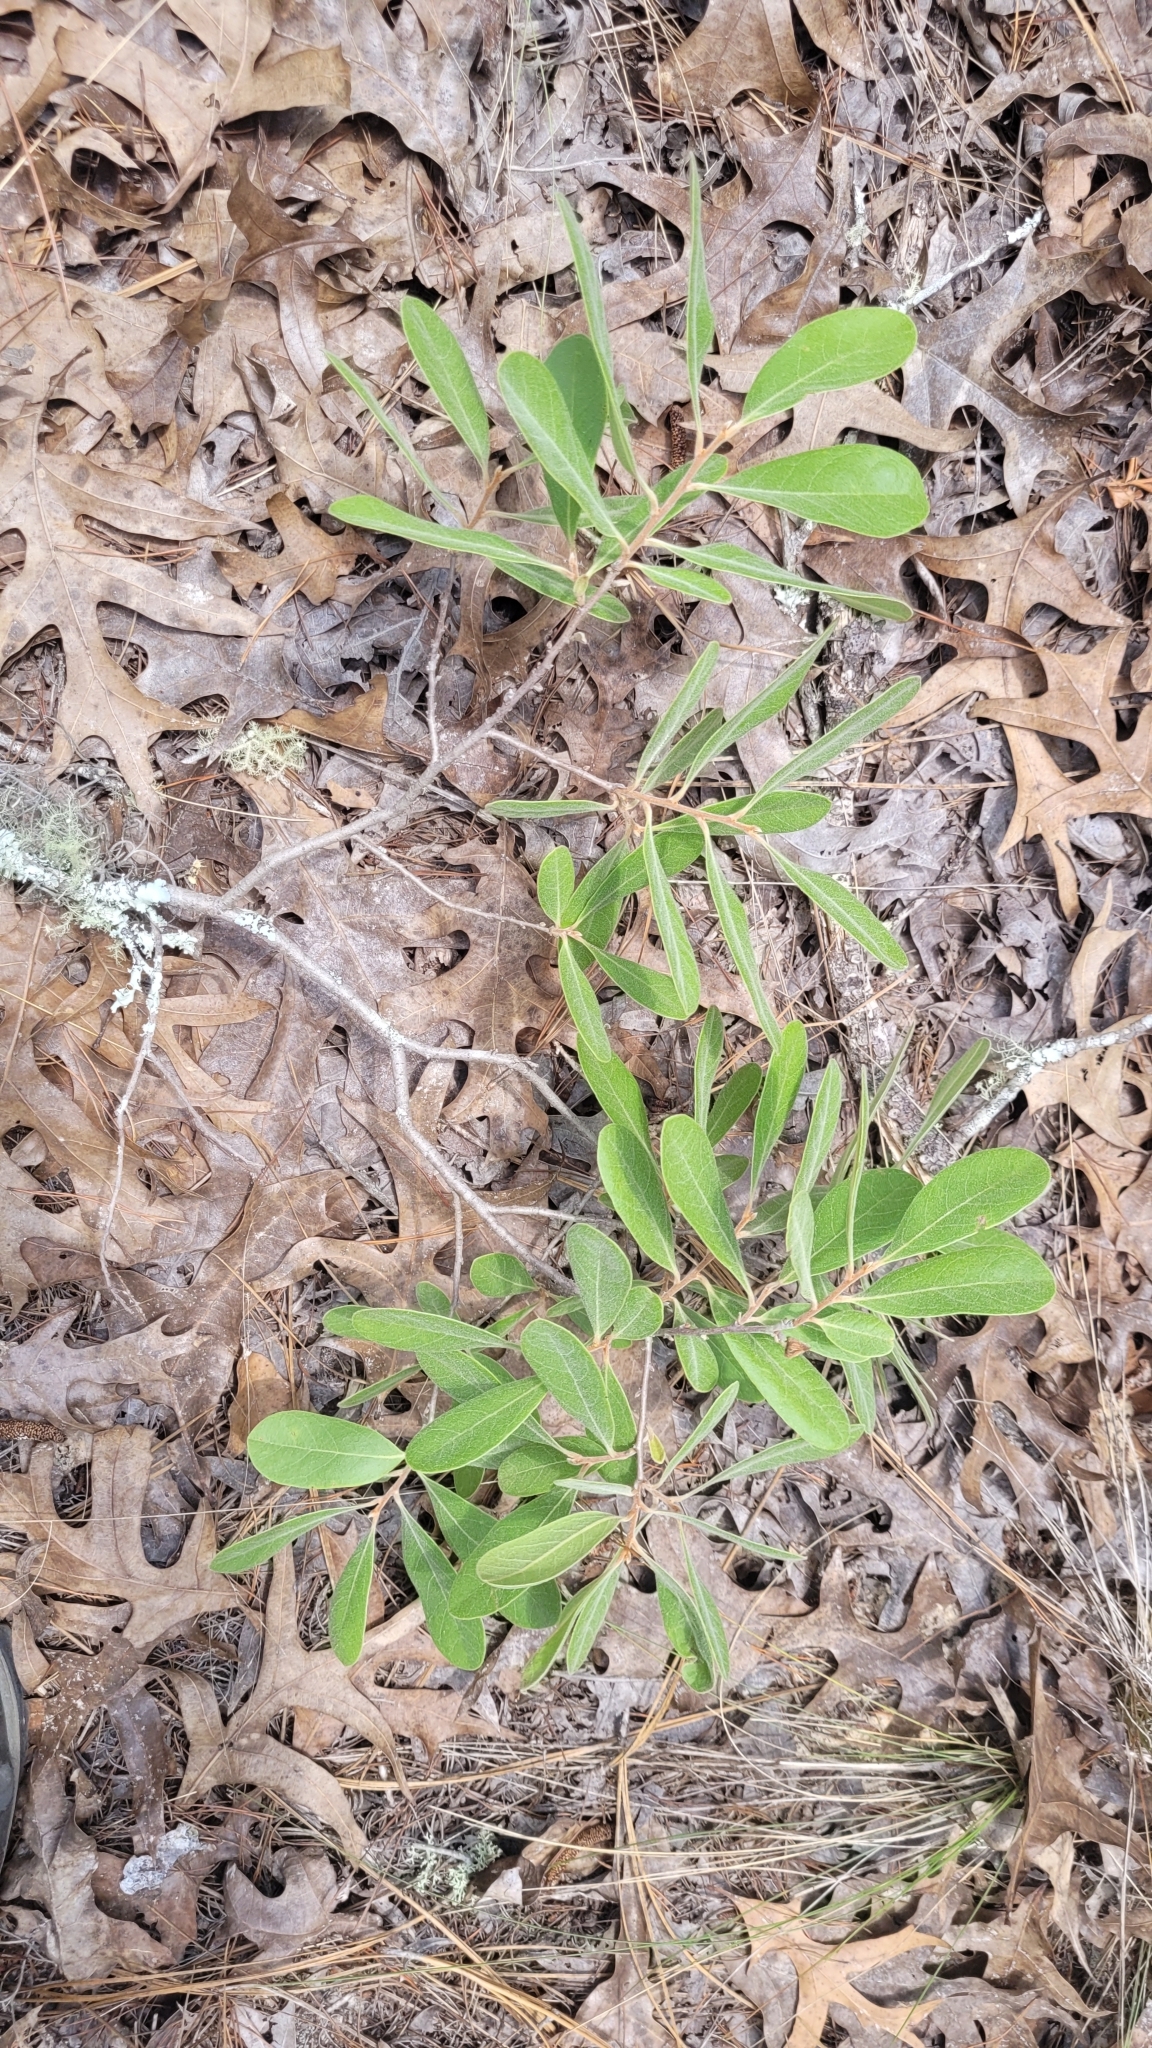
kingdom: Plantae
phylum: Tracheophyta
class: Magnoliopsida
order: Magnoliales
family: Annonaceae
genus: Asimina
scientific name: Asimina speciosa
